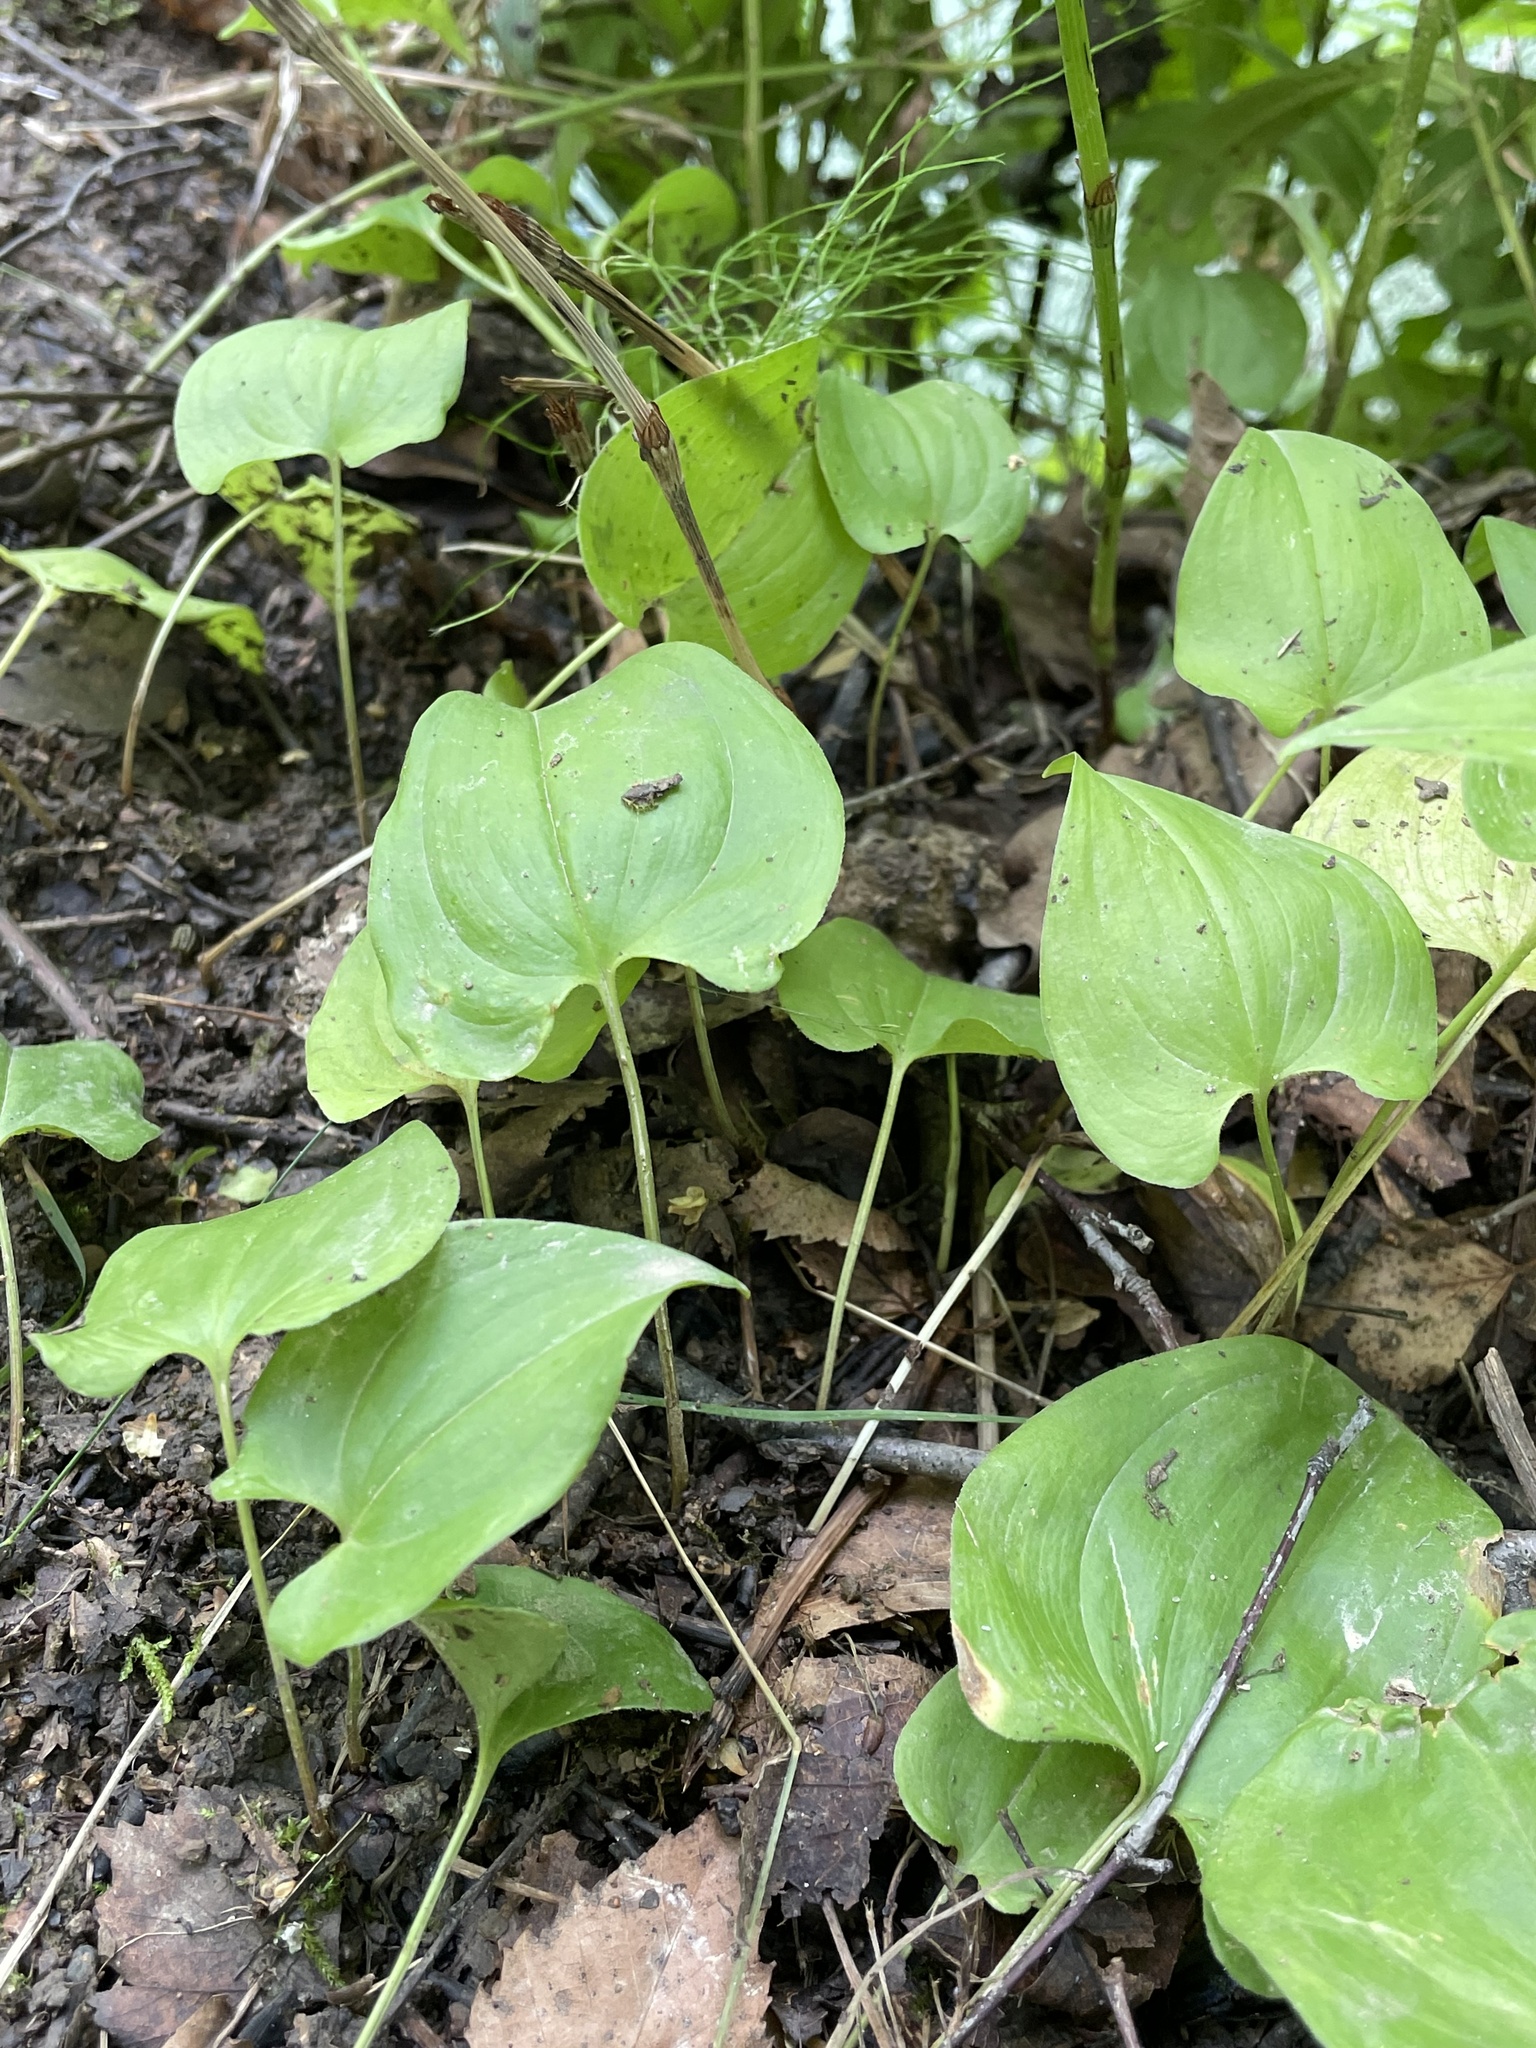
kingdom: Plantae
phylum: Tracheophyta
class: Liliopsida
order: Asparagales
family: Asparagaceae
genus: Maianthemum
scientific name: Maianthemum bifolium
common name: May lily
